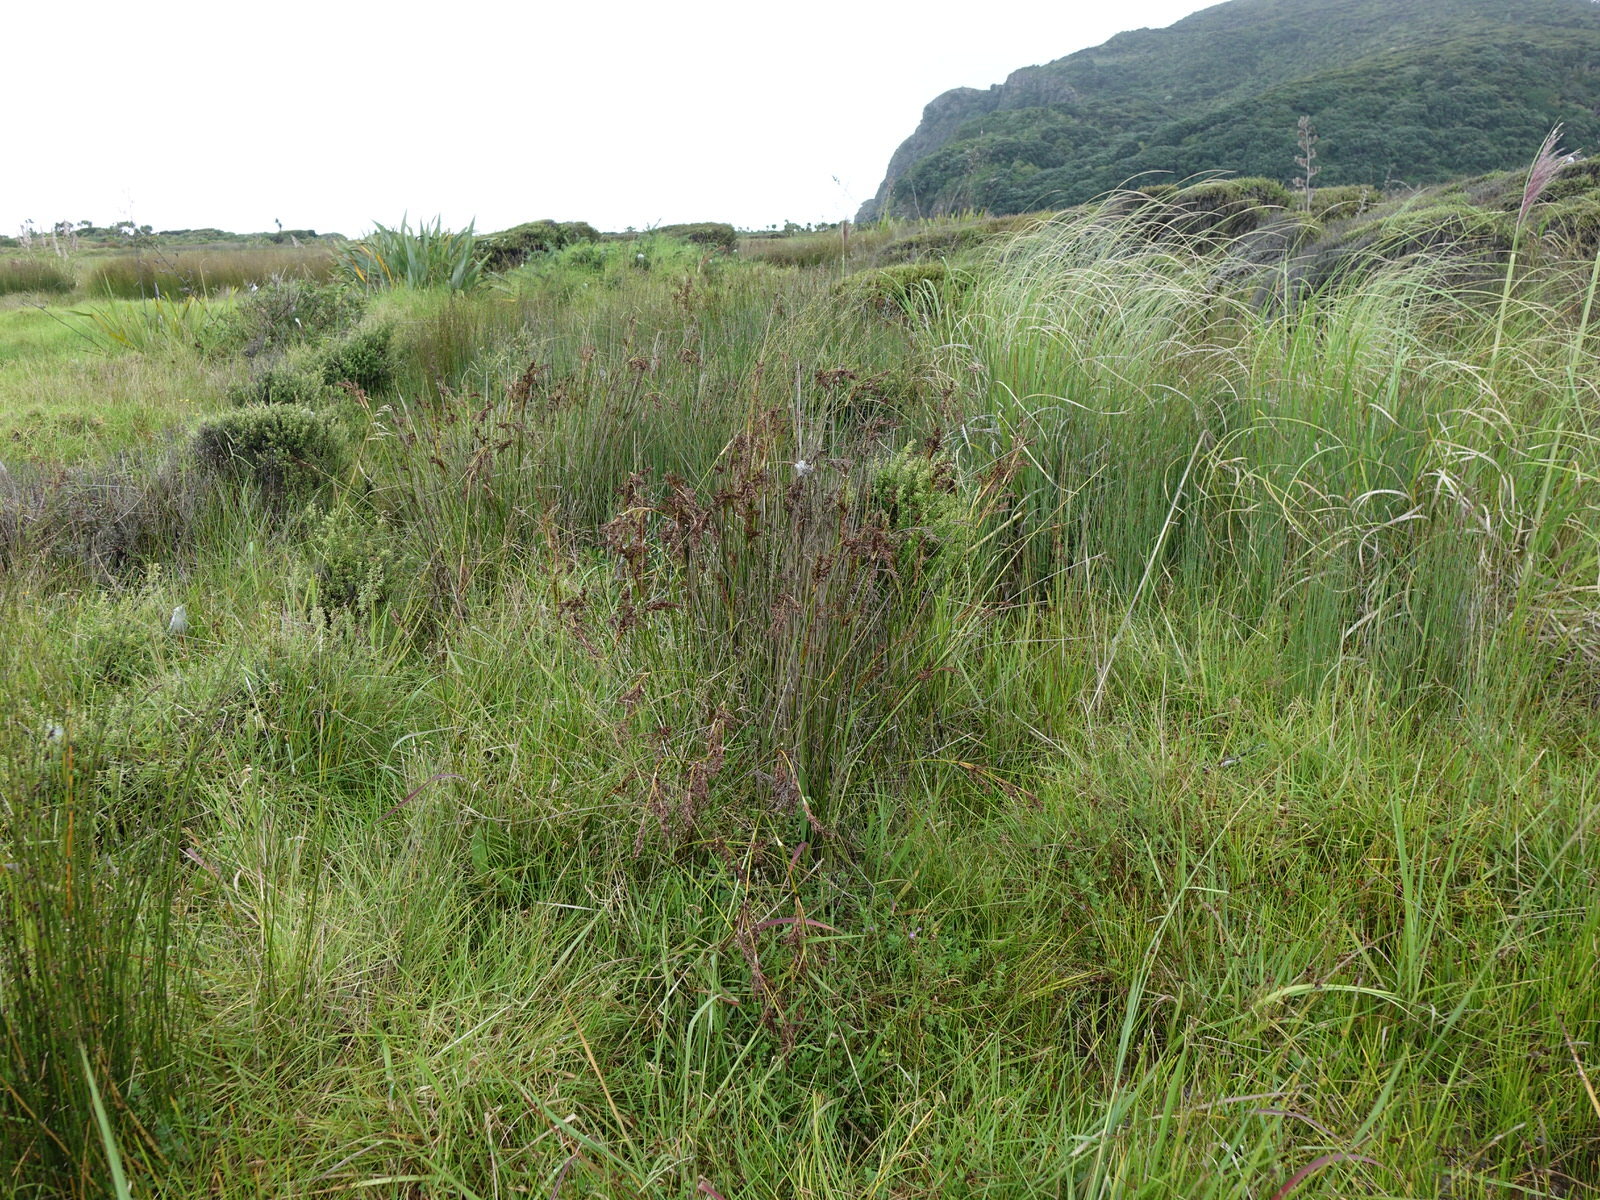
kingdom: Plantae
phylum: Tracheophyta
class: Magnoliopsida
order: Myrtales
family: Lythraceae
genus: Lythrum
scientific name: Lythrum hyssopifolia
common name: Grass-poly
